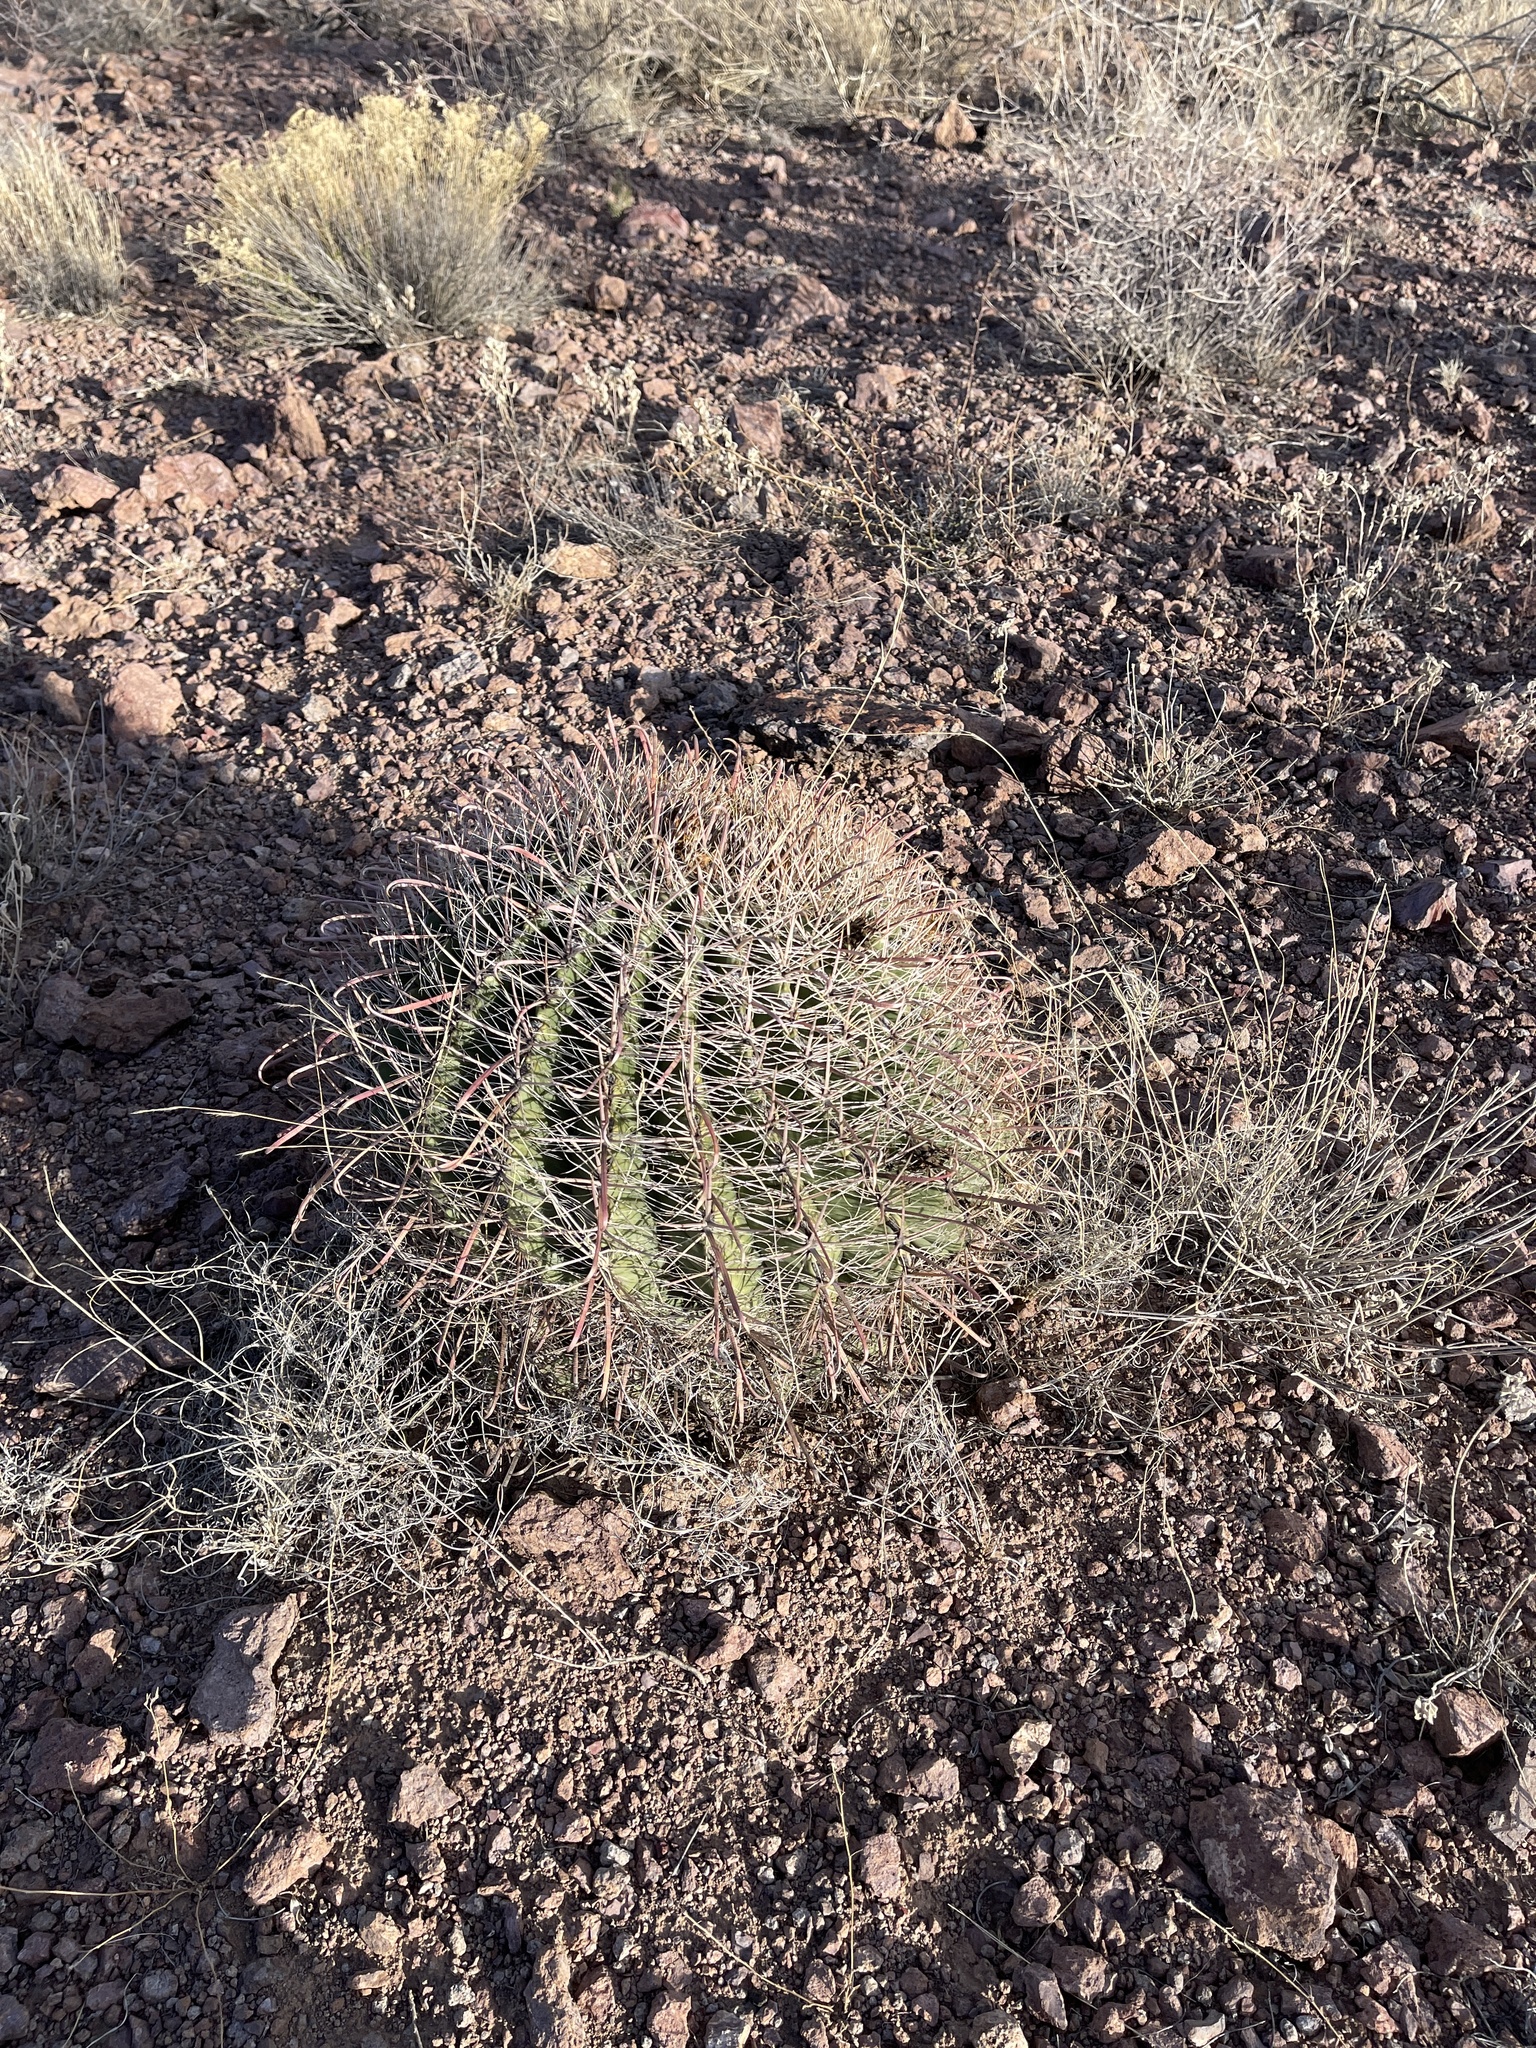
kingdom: Plantae
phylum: Tracheophyta
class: Magnoliopsida
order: Caryophyllales
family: Cactaceae
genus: Ferocactus
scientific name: Ferocactus wislizeni
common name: Candy barrel cactus
